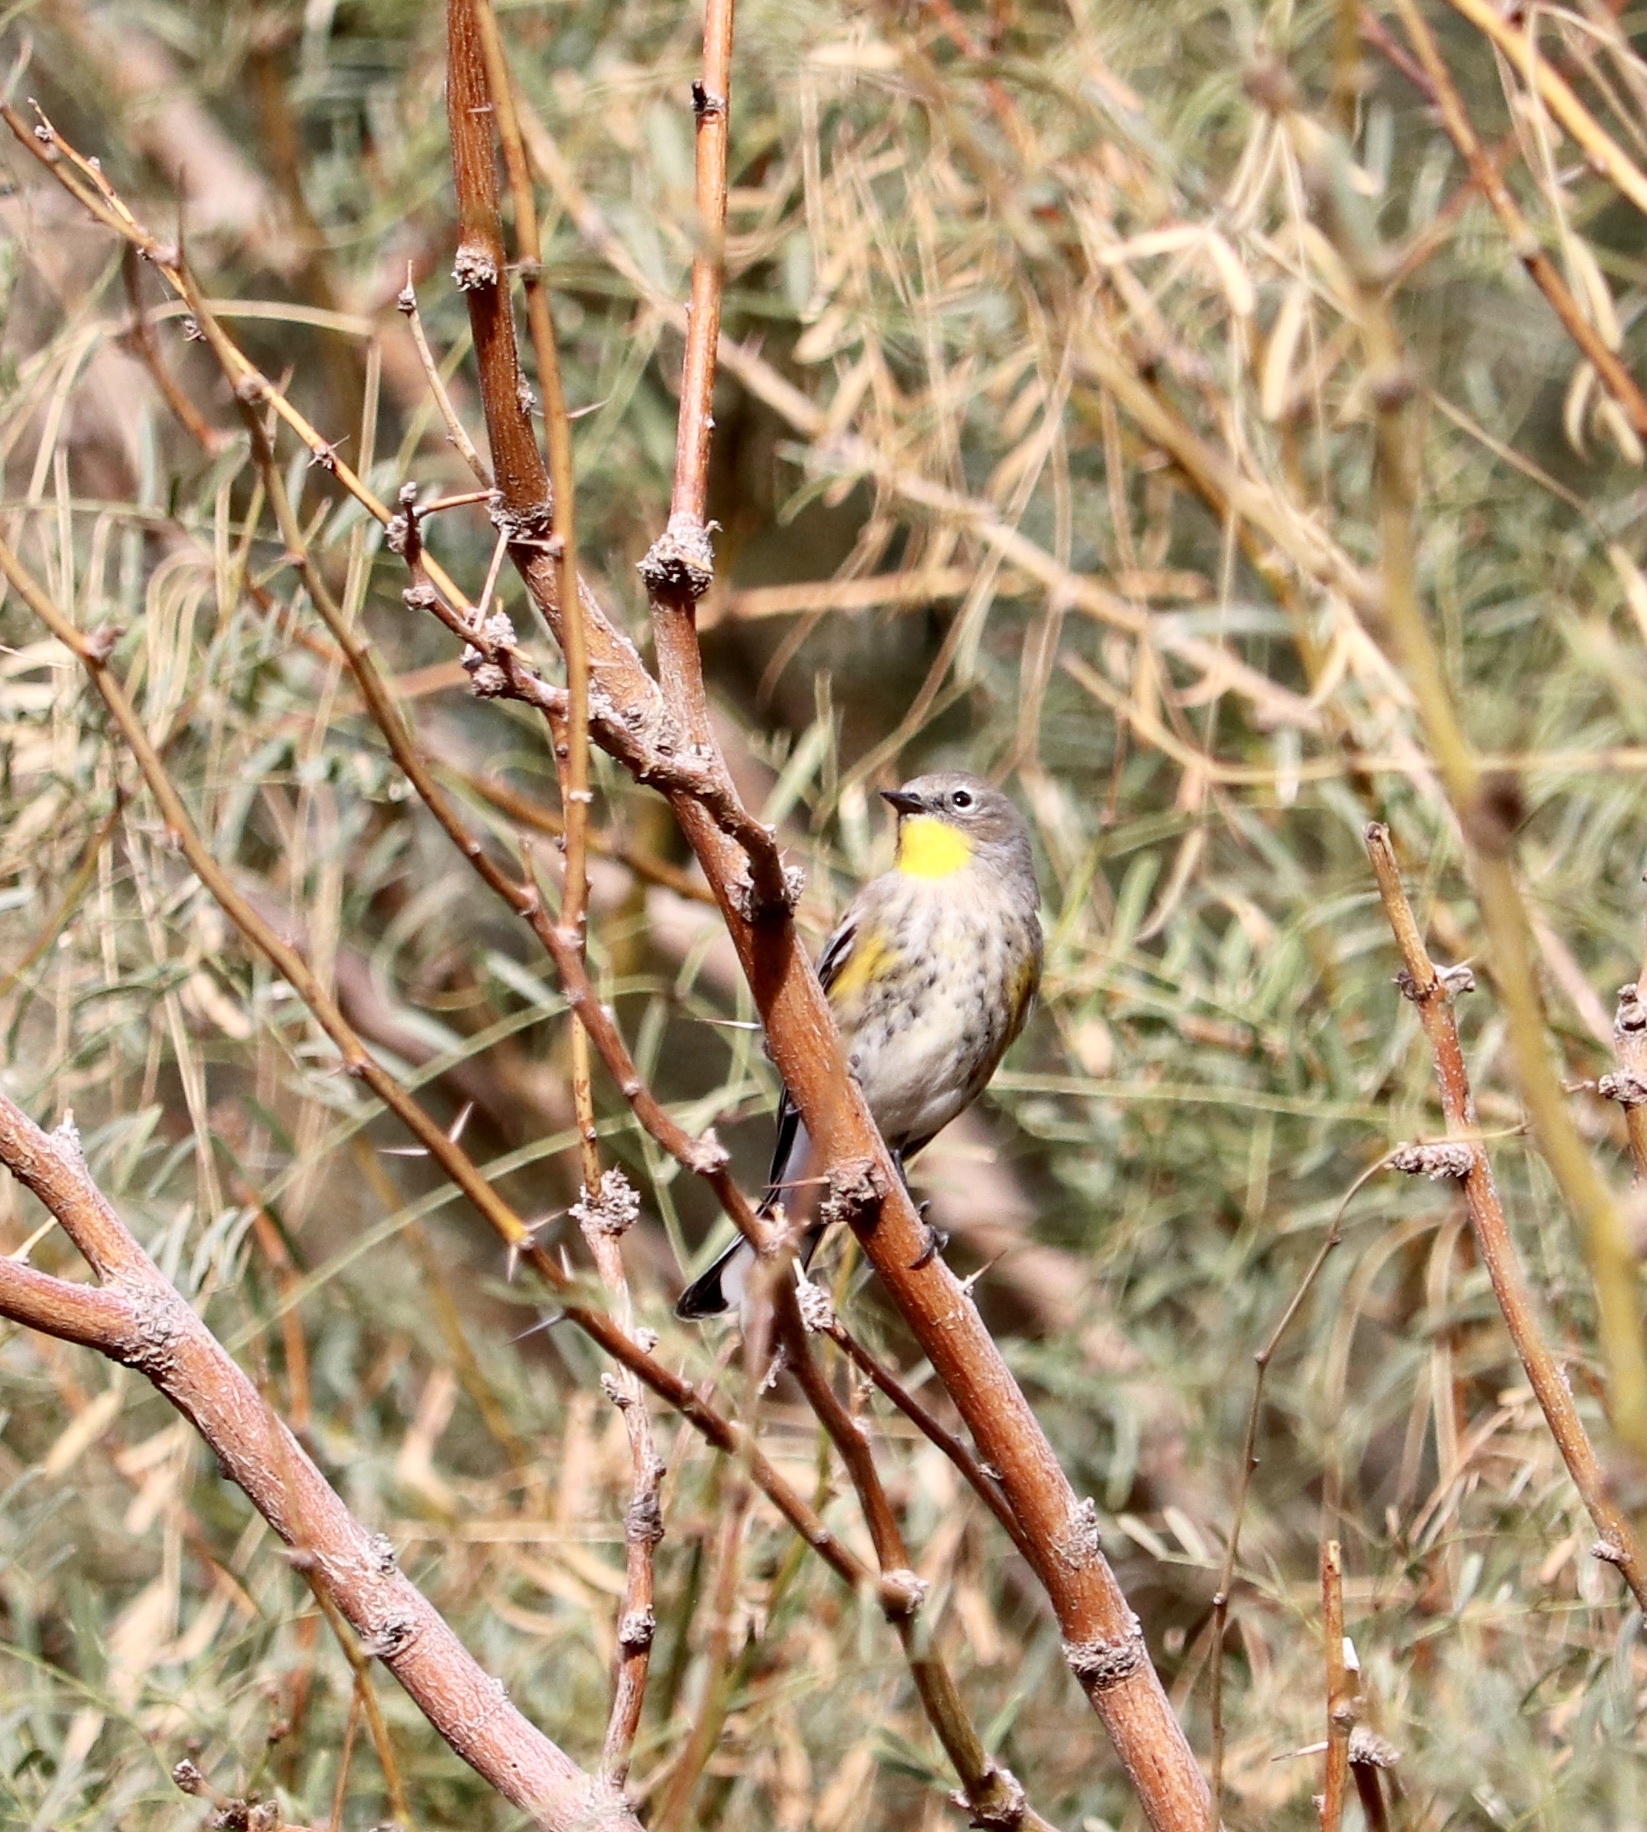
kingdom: Animalia
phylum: Chordata
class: Aves
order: Passeriformes
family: Parulidae
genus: Setophaga
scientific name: Setophaga coronata
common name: Myrtle warbler
